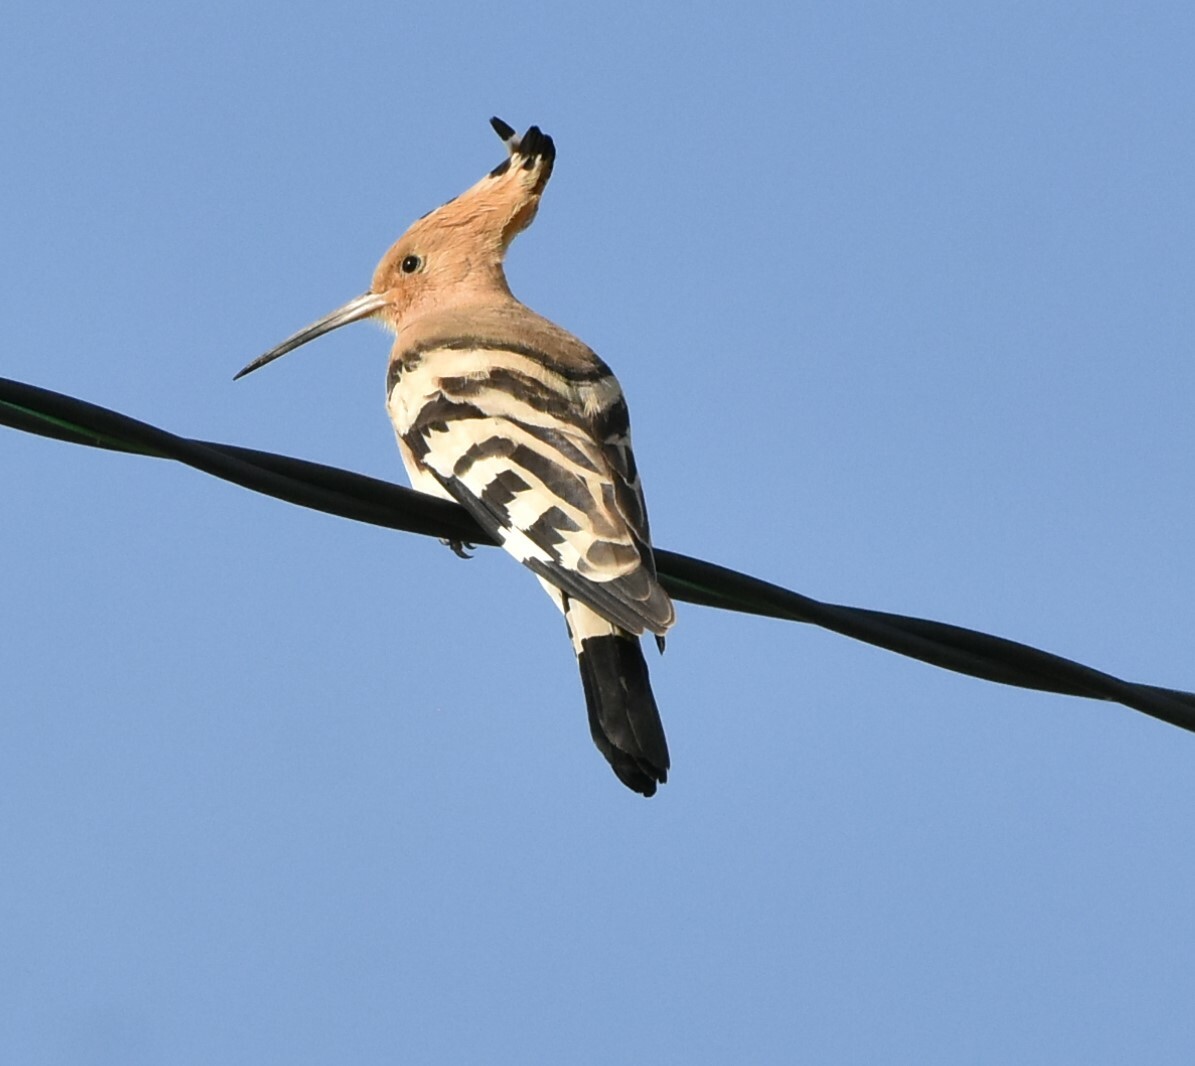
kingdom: Animalia
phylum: Chordata
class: Aves
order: Bucerotiformes
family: Upupidae
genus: Upupa
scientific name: Upupa epops
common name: Eurasian hoopoe
